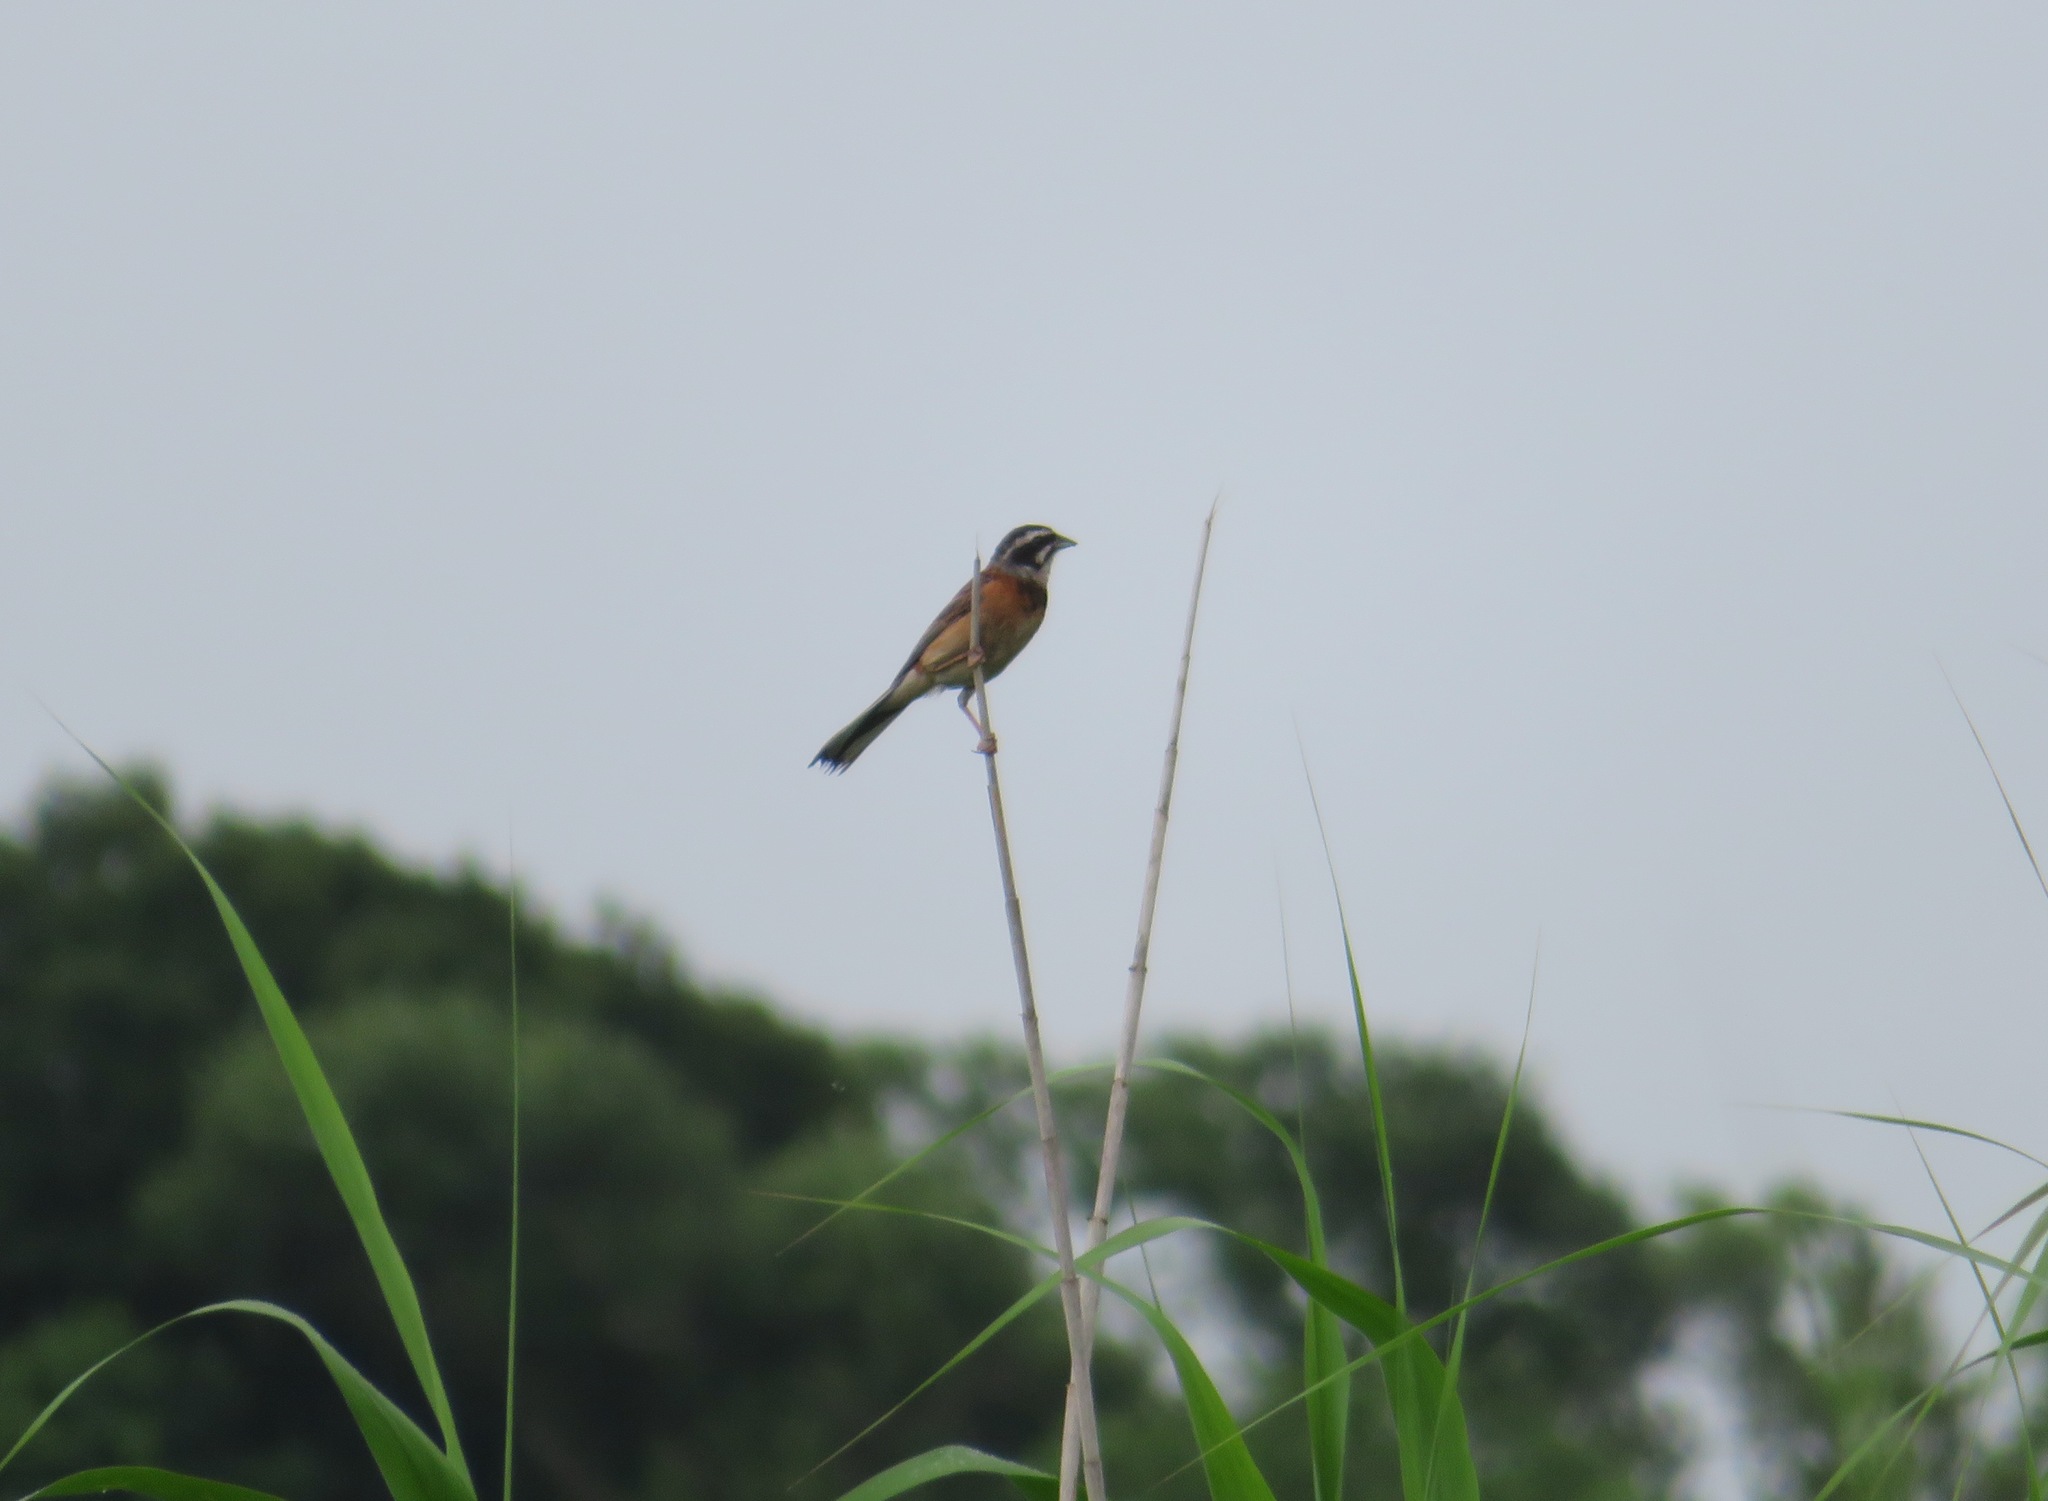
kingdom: Animalia
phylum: Chordata
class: Aves
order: Passeriformes
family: Emberizidae
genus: Emberiza
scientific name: Emberiza cioides
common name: Meadow bunting
